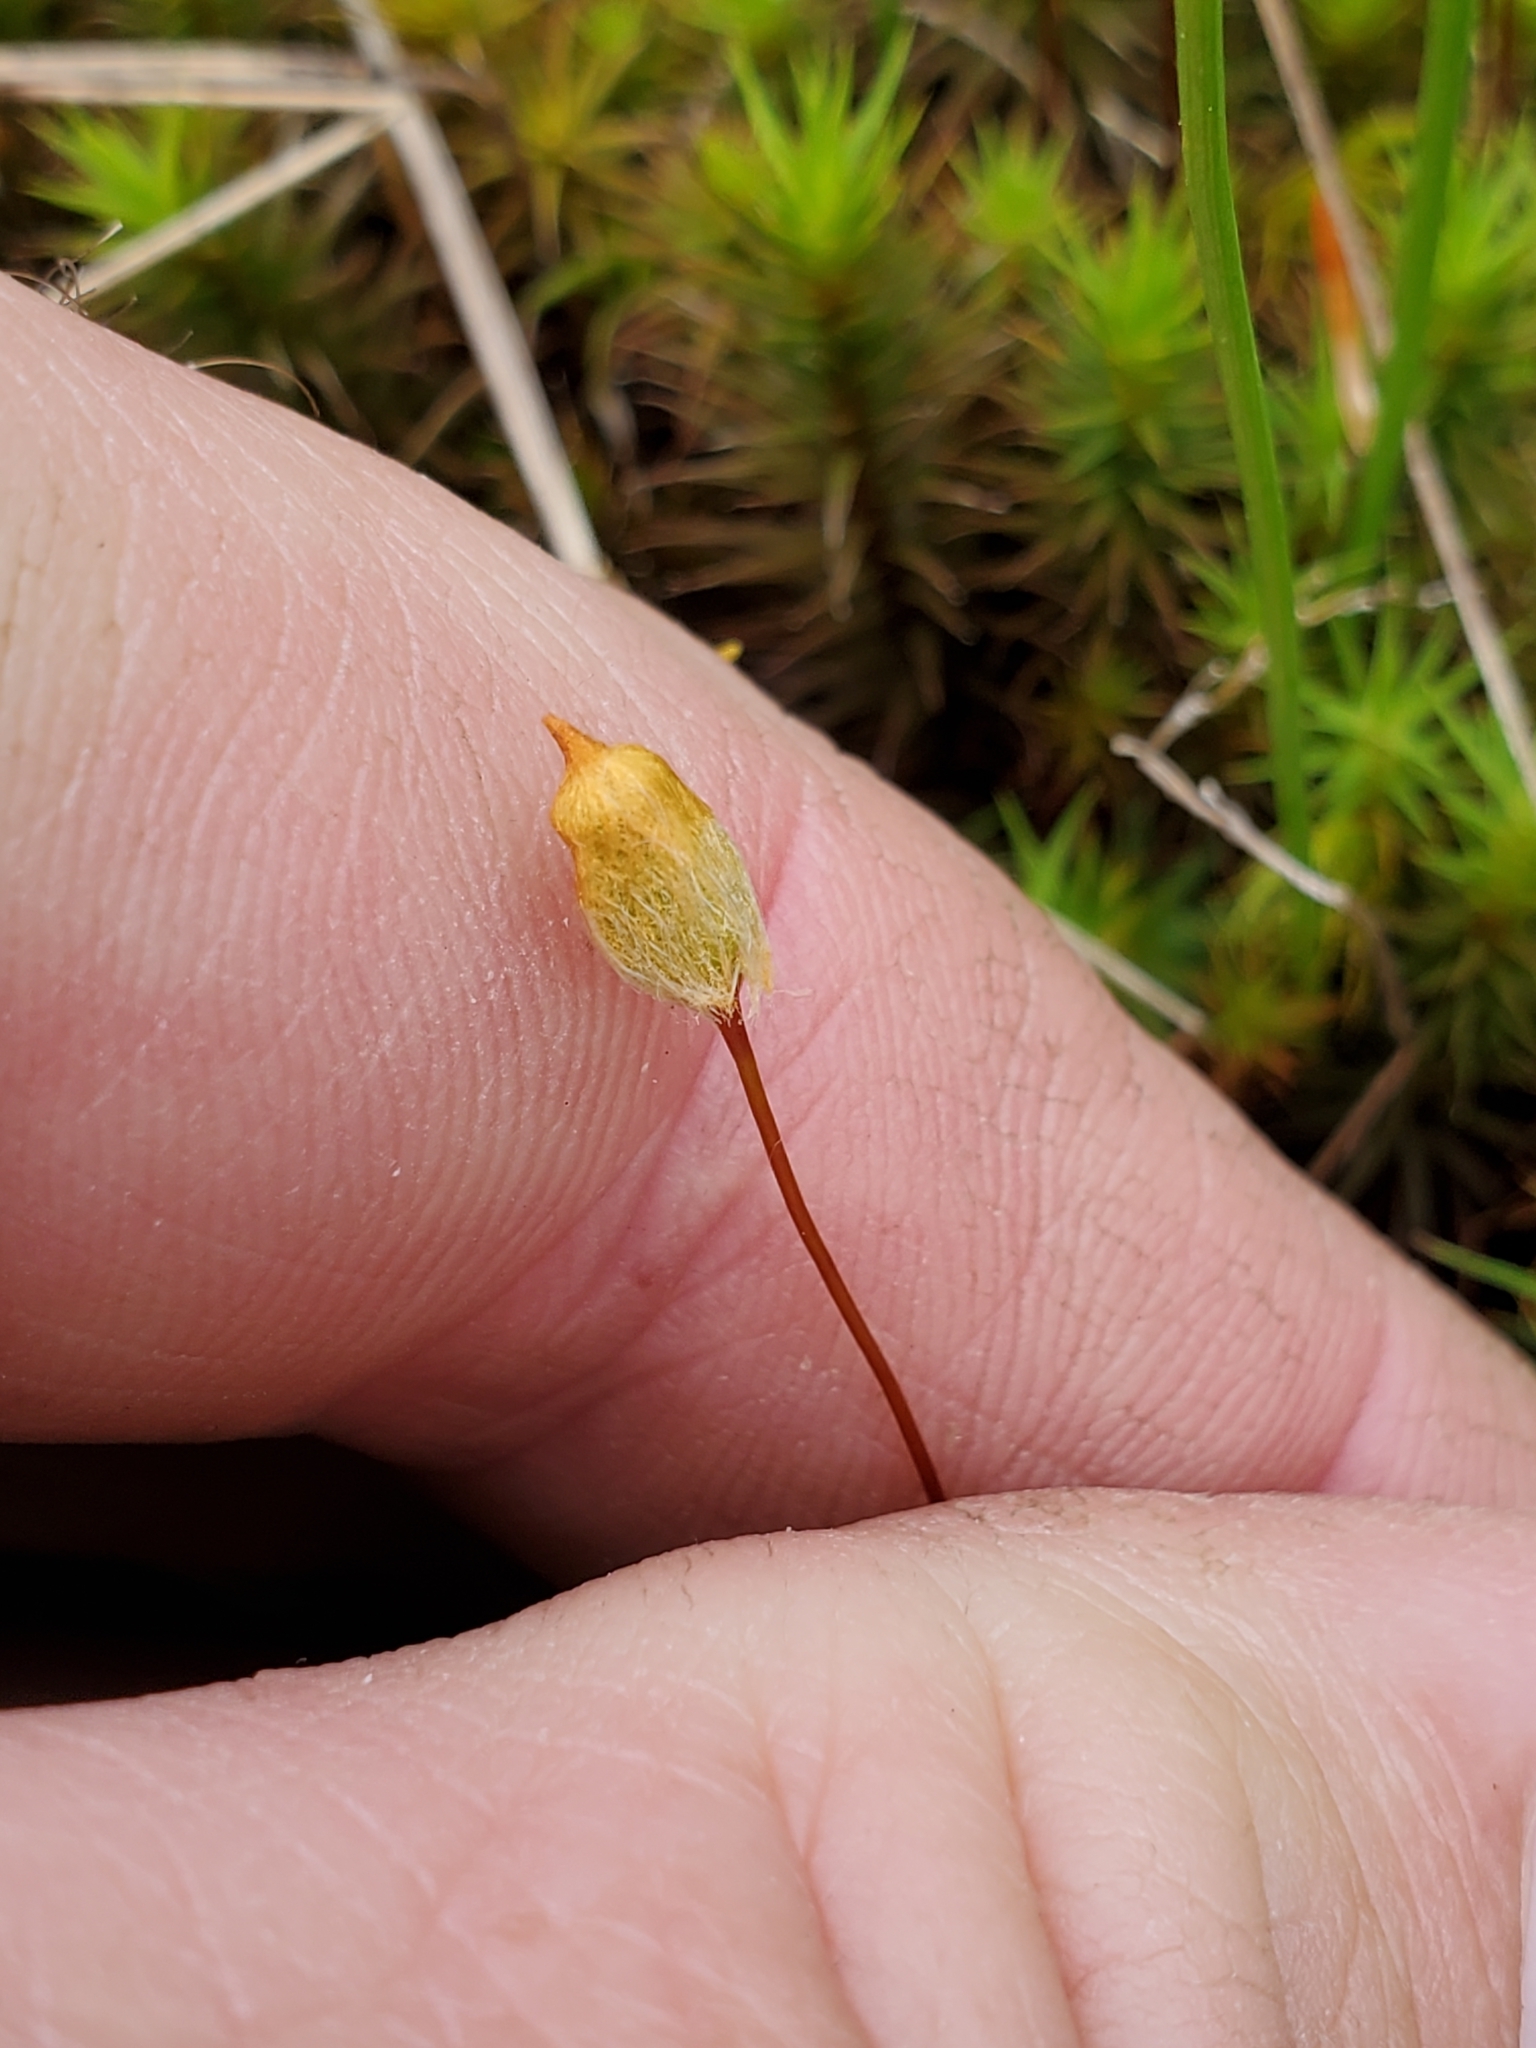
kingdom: Plantae
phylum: Bryophyta
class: Polytrichopsida
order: Polytrichales
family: Polytrichaceae
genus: Polytrichum
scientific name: Polytrichum commune
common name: Common haircap
